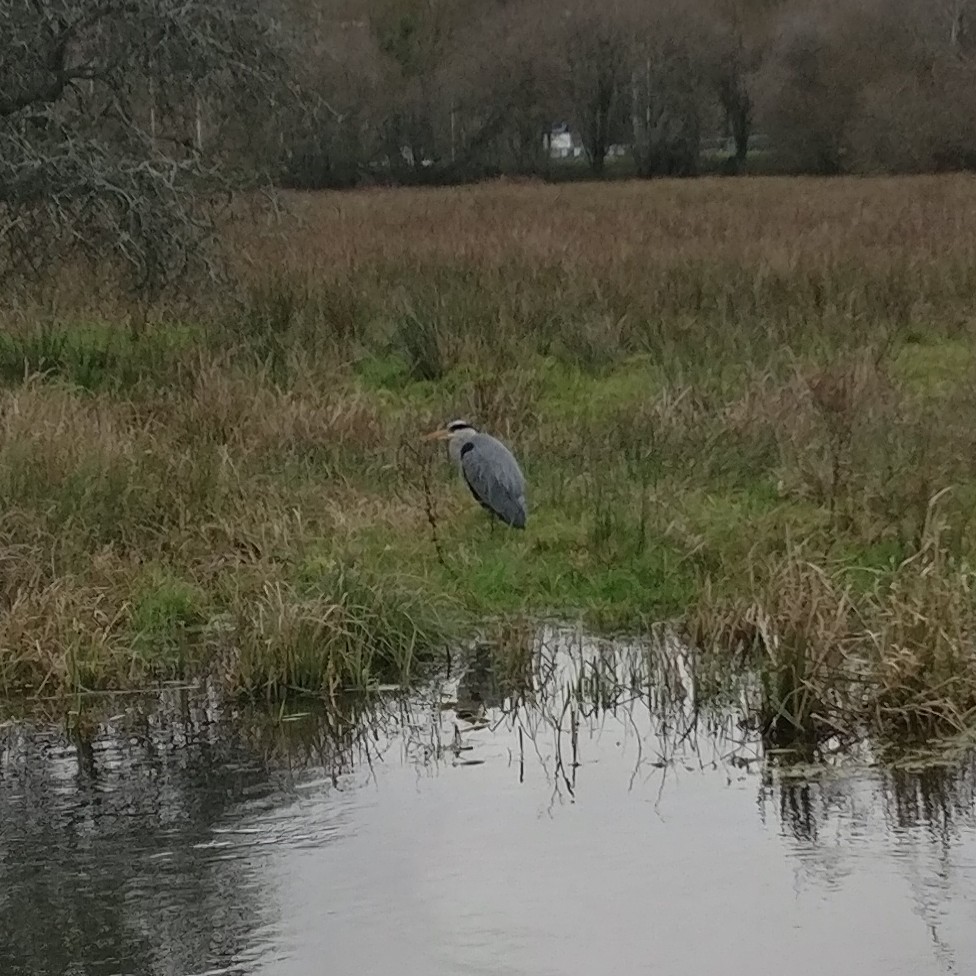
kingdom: Animalia
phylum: Chordata
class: Aves
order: Pelecaniformes
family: Ardeidae
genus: Ardea
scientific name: Ardea cinerea
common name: Grey heron
